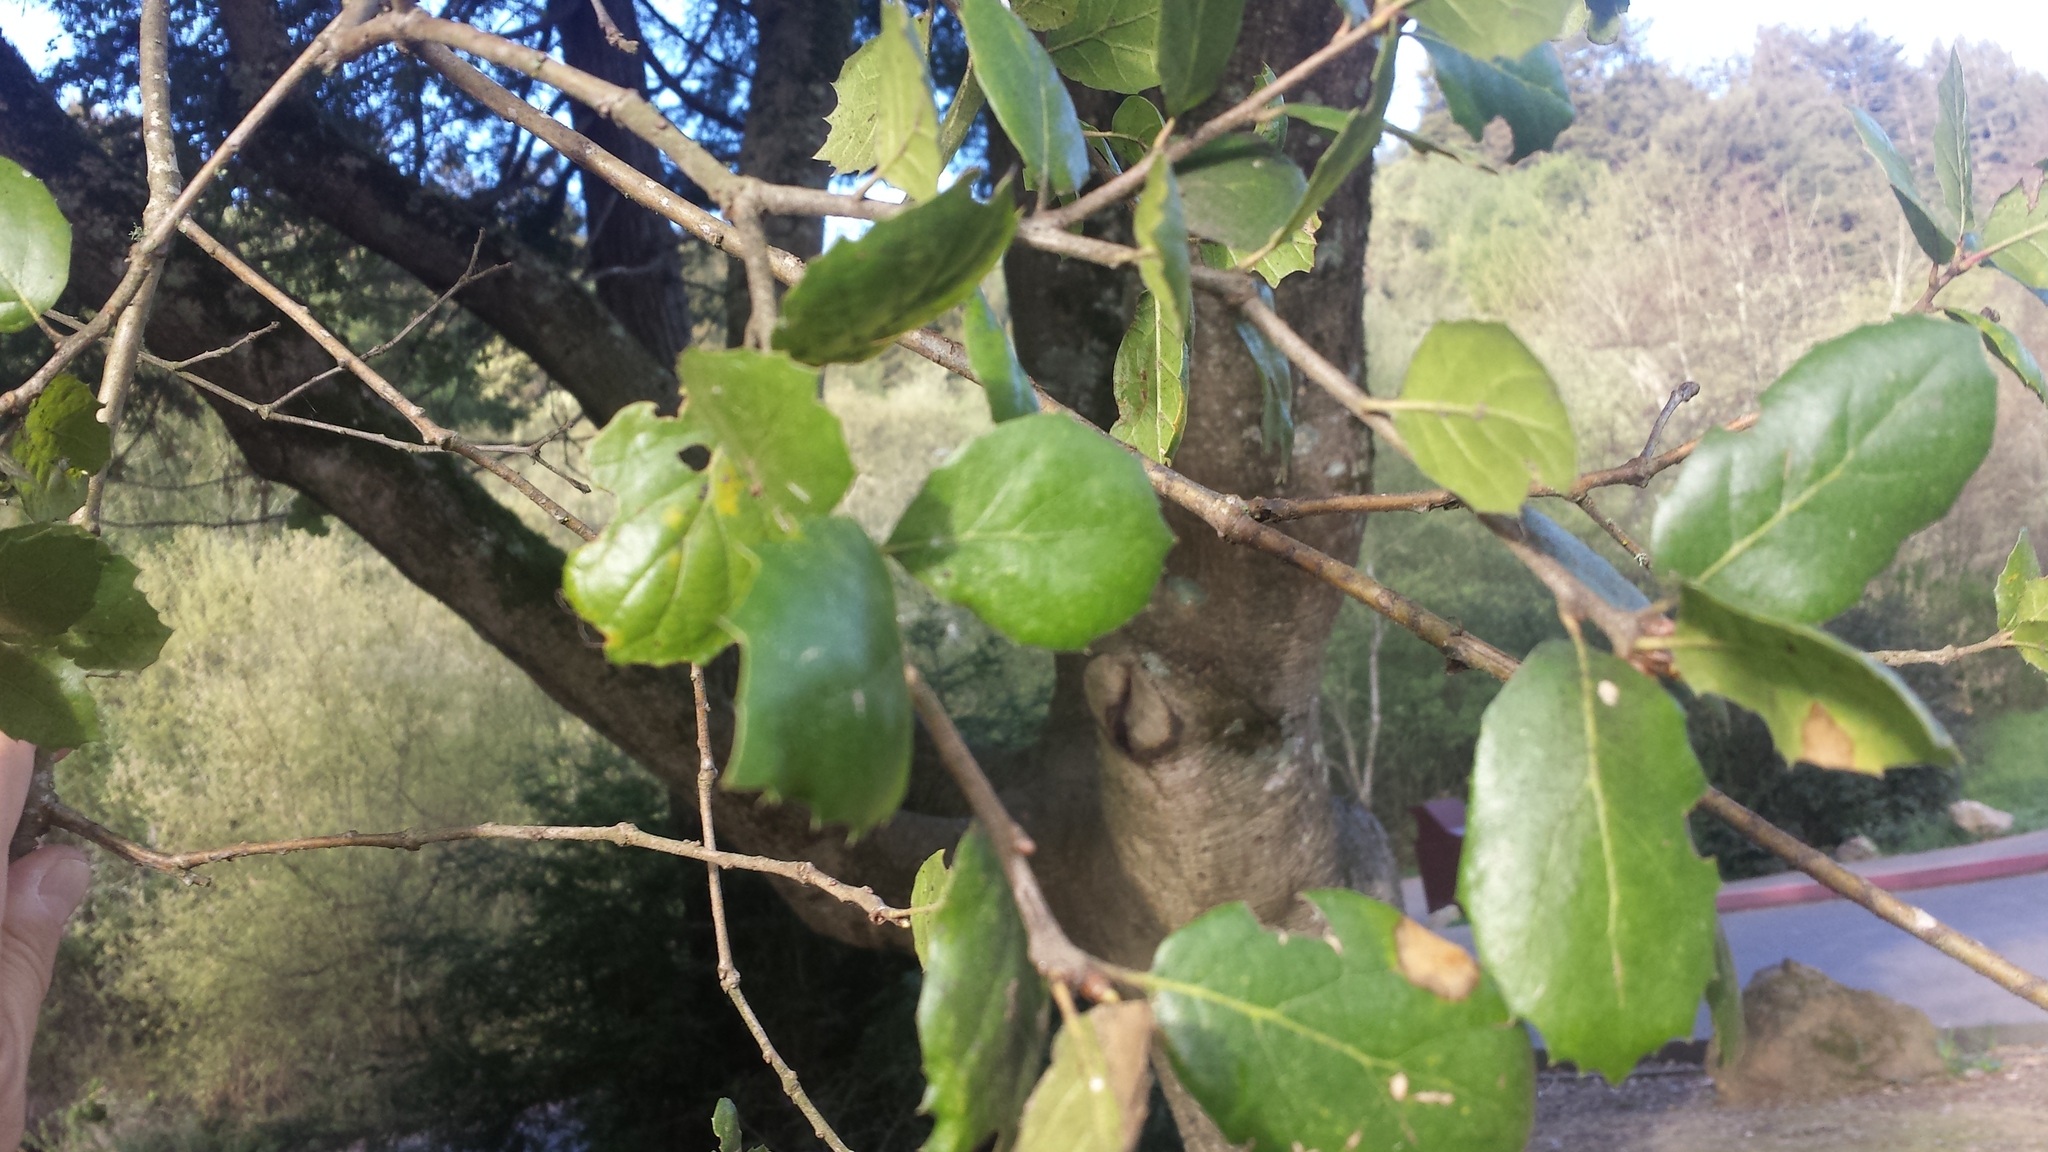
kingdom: Plantae
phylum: Tracheophyta
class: Magnoliopsida
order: Fagales
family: Fagaceae
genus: Quercus
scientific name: Quercus agrifolia
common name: California live oak
